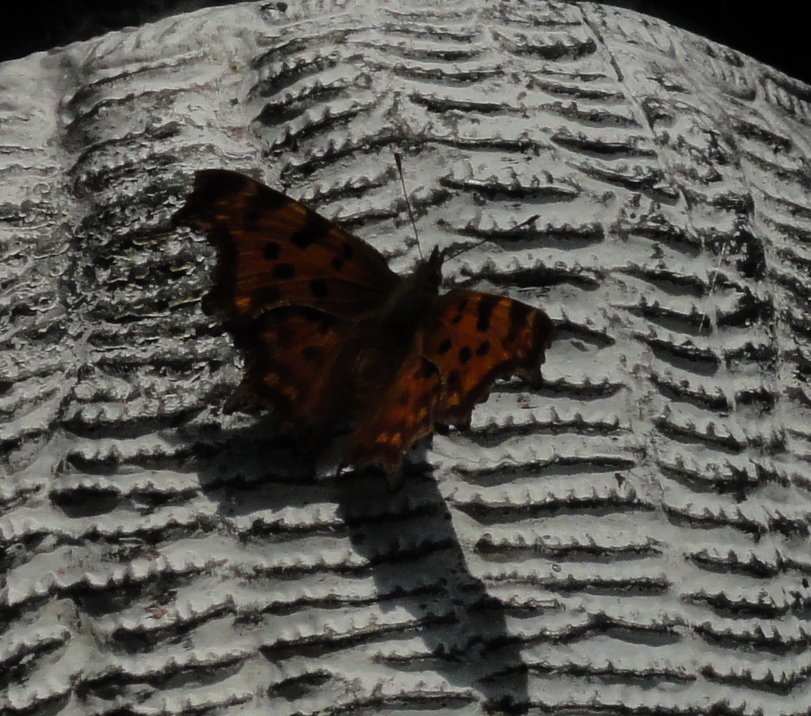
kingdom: Animalia
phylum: Arthropoda
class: Insecta
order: Lepidoptera
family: Nymphalidae
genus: Polygonia
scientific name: Polygonia c-album
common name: Comma
